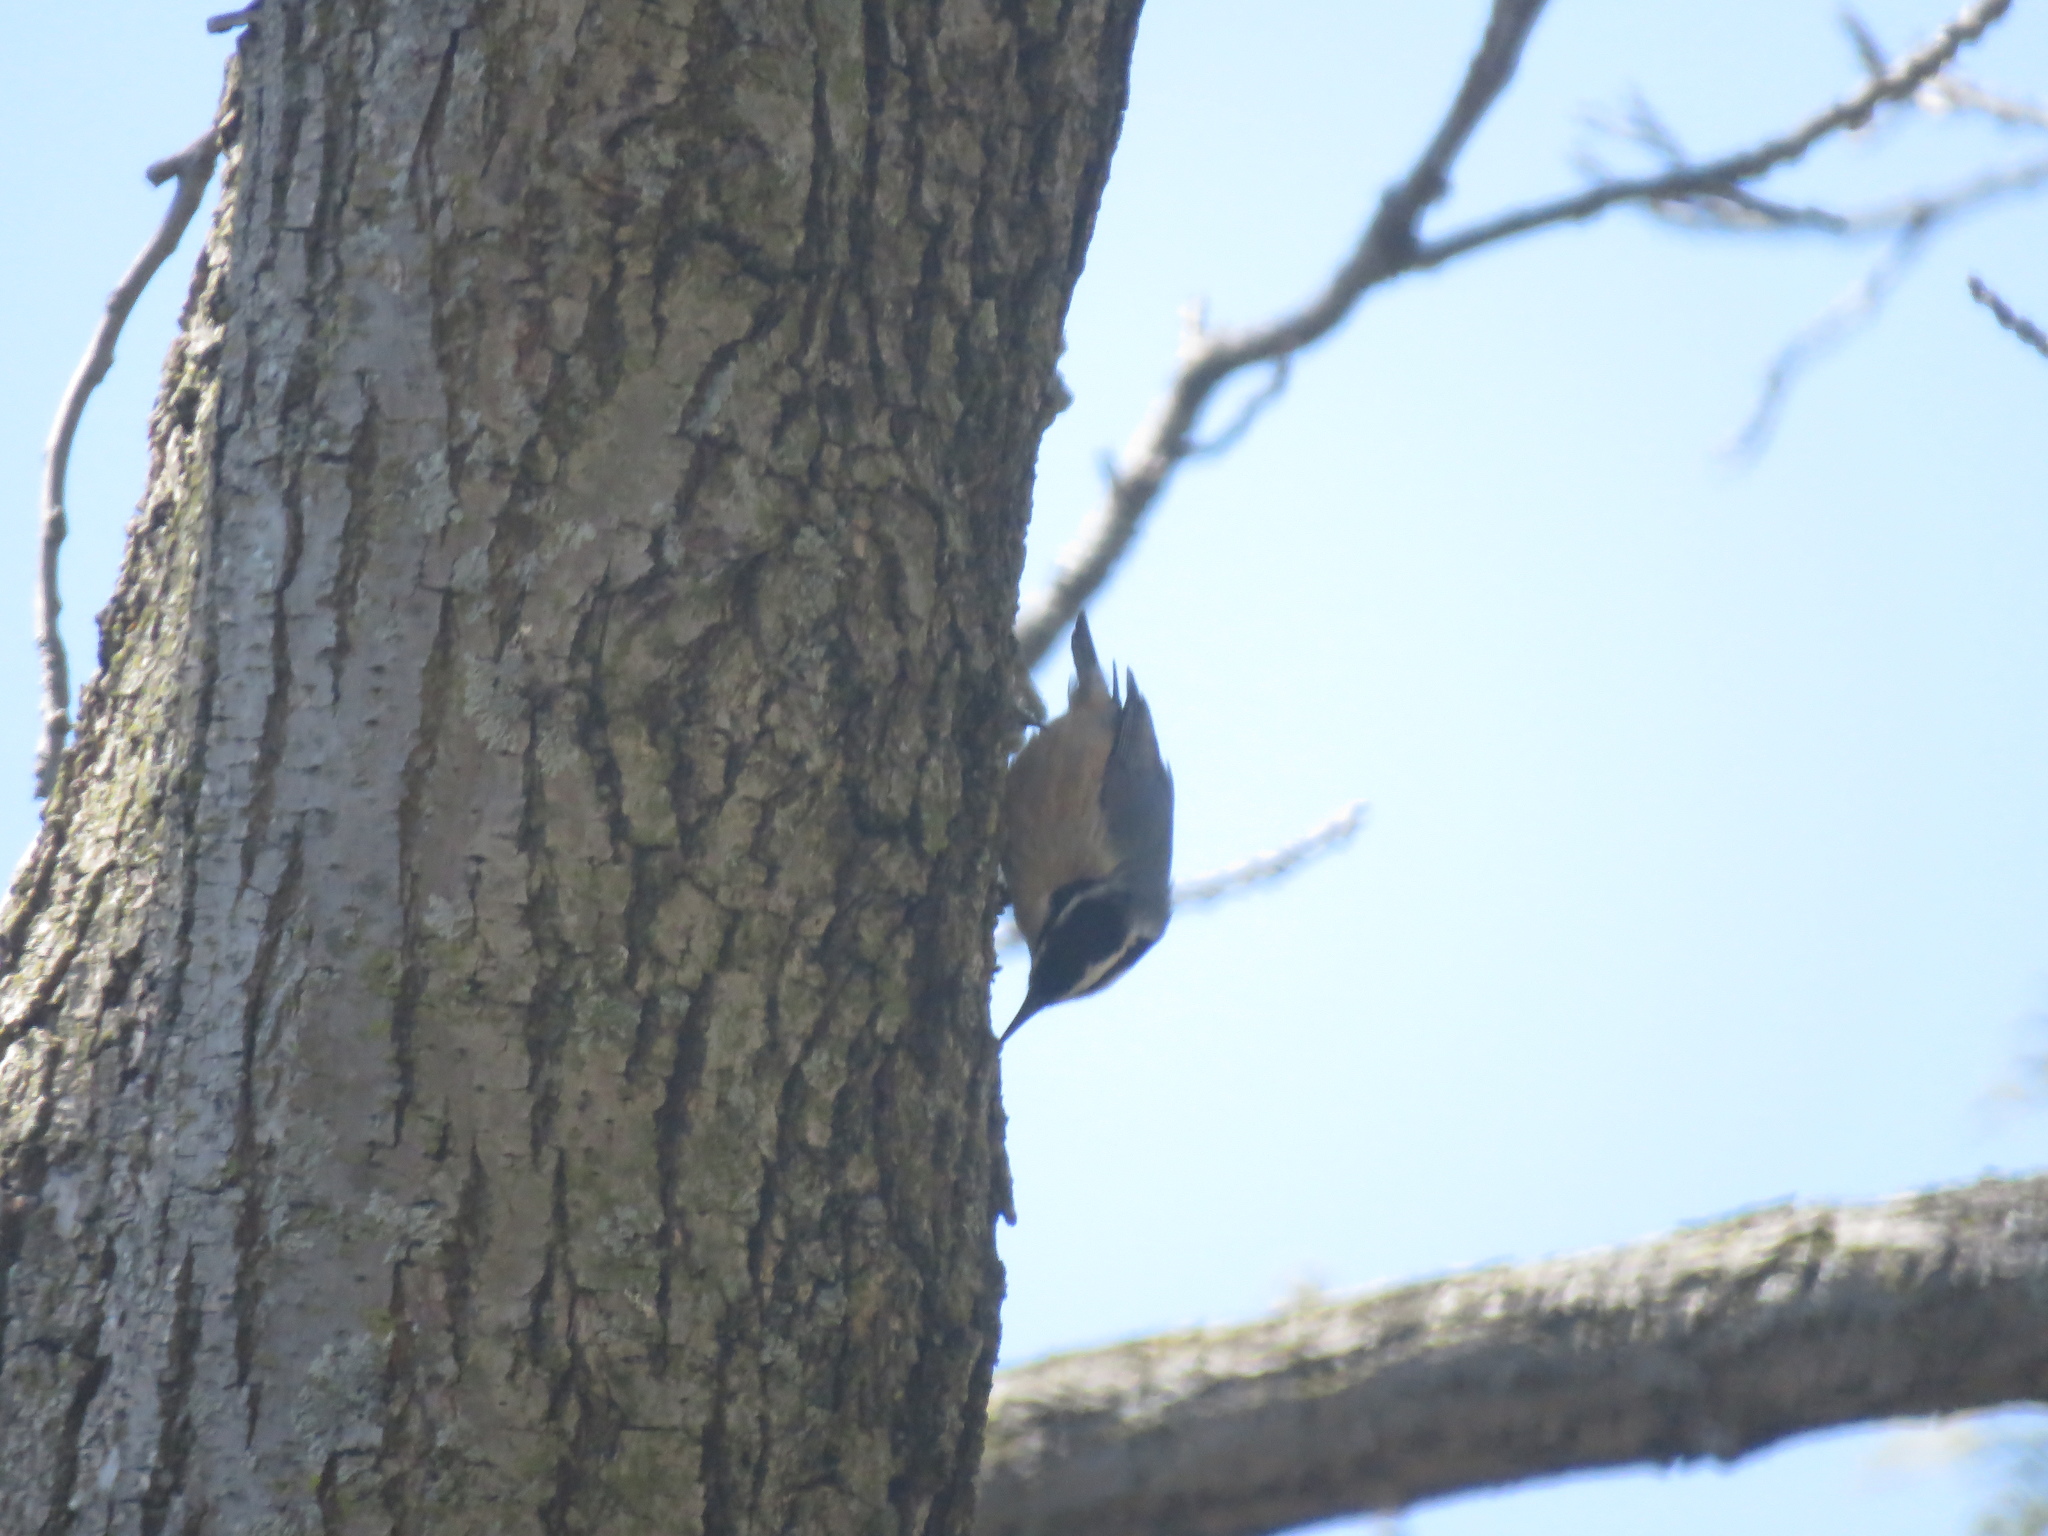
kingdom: Animalia
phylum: Chordata
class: Aves
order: Passeriformes
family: Sittidae
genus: Sitta
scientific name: Sitta canadensis
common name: Red-breasted nuthatch
